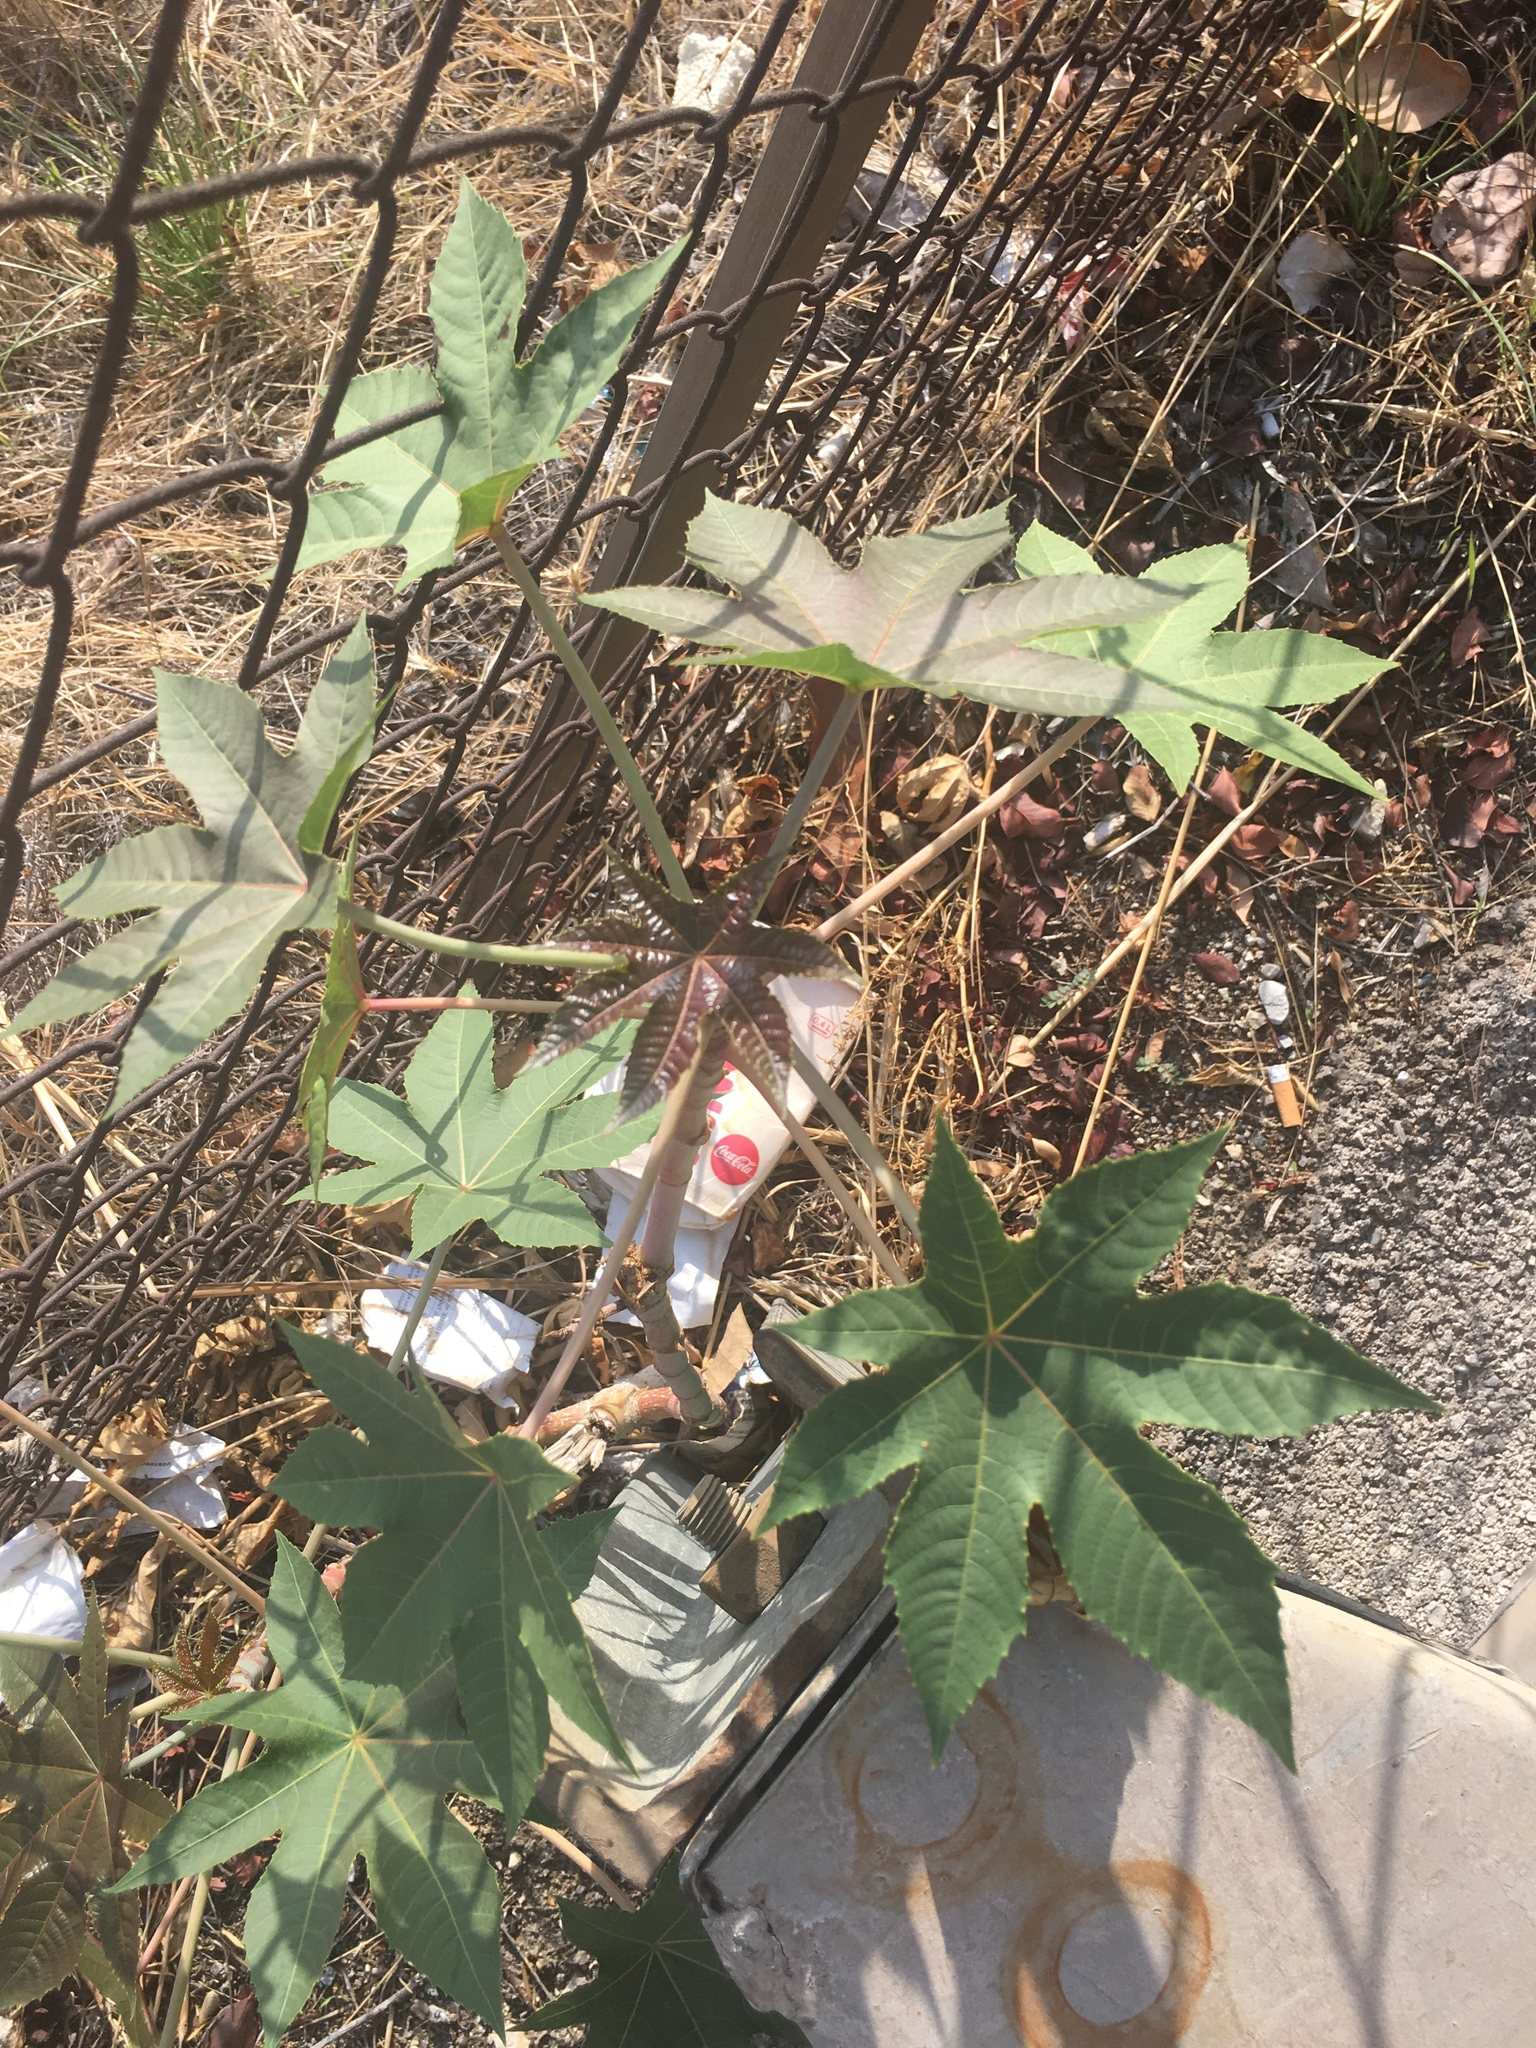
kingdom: Plantae
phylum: Tracheophyta
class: Magnoliopsida
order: Malpighiales
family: Euphorbiaceae
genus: Ricinus
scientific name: Ricinus communis
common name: Castor-oil-plant
